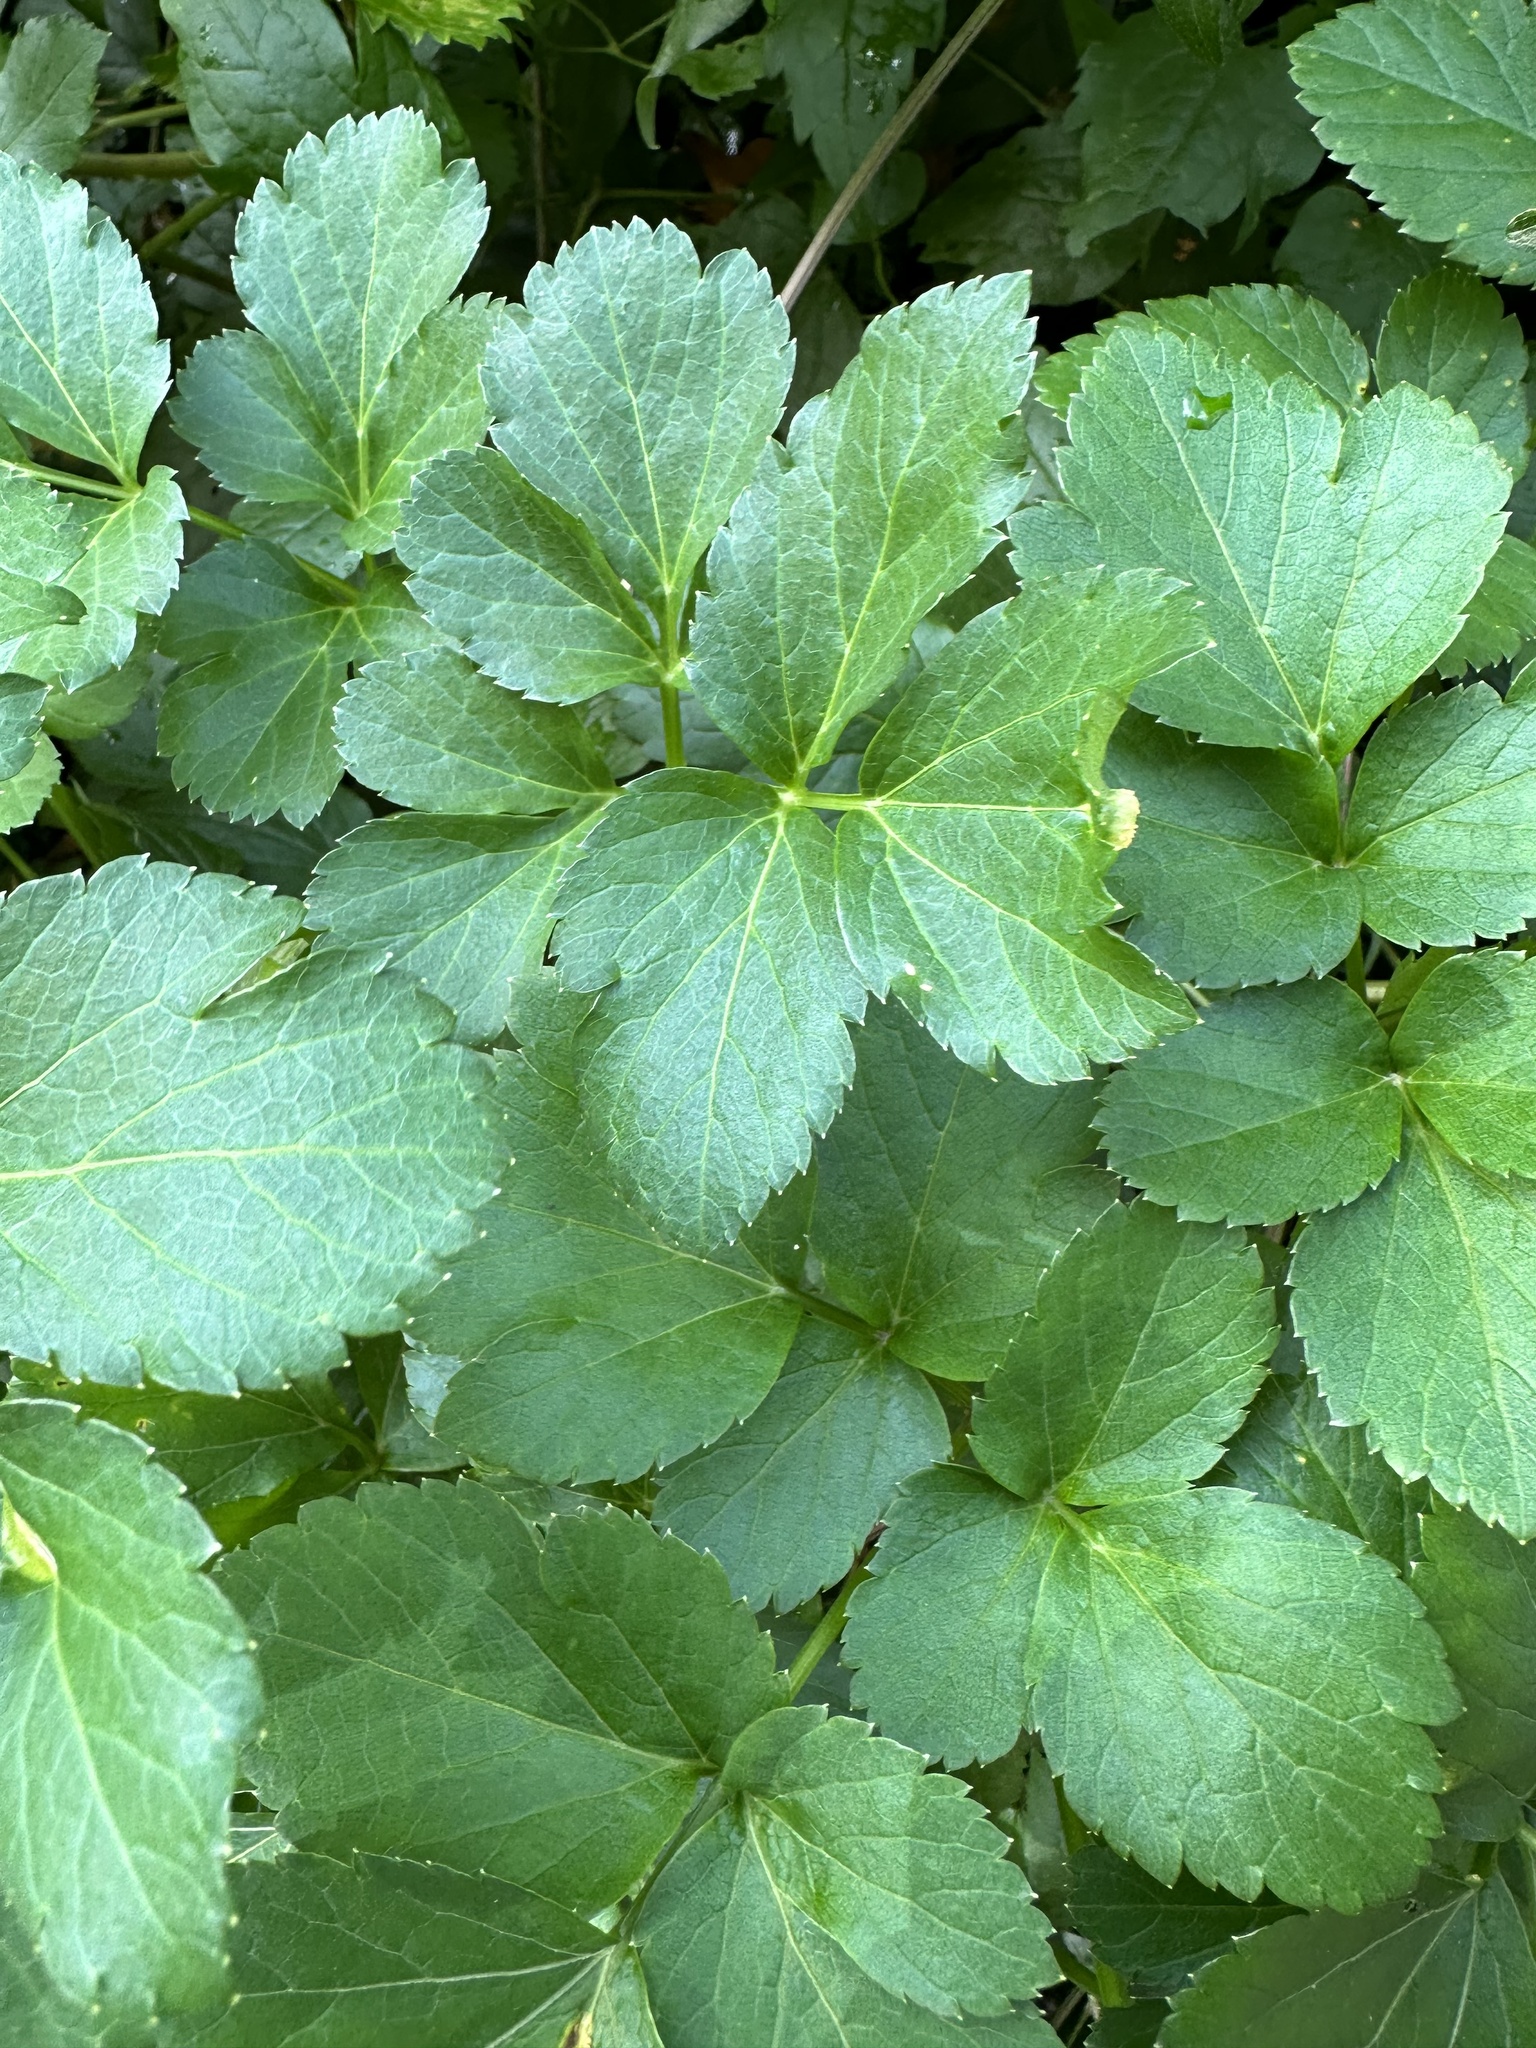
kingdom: Plantae
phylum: Tracheophyta
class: Magnoliopsida
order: Apiales
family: Apiaceae
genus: Smyrnium
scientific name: Smyrnium olusatrum
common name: Alexanders
